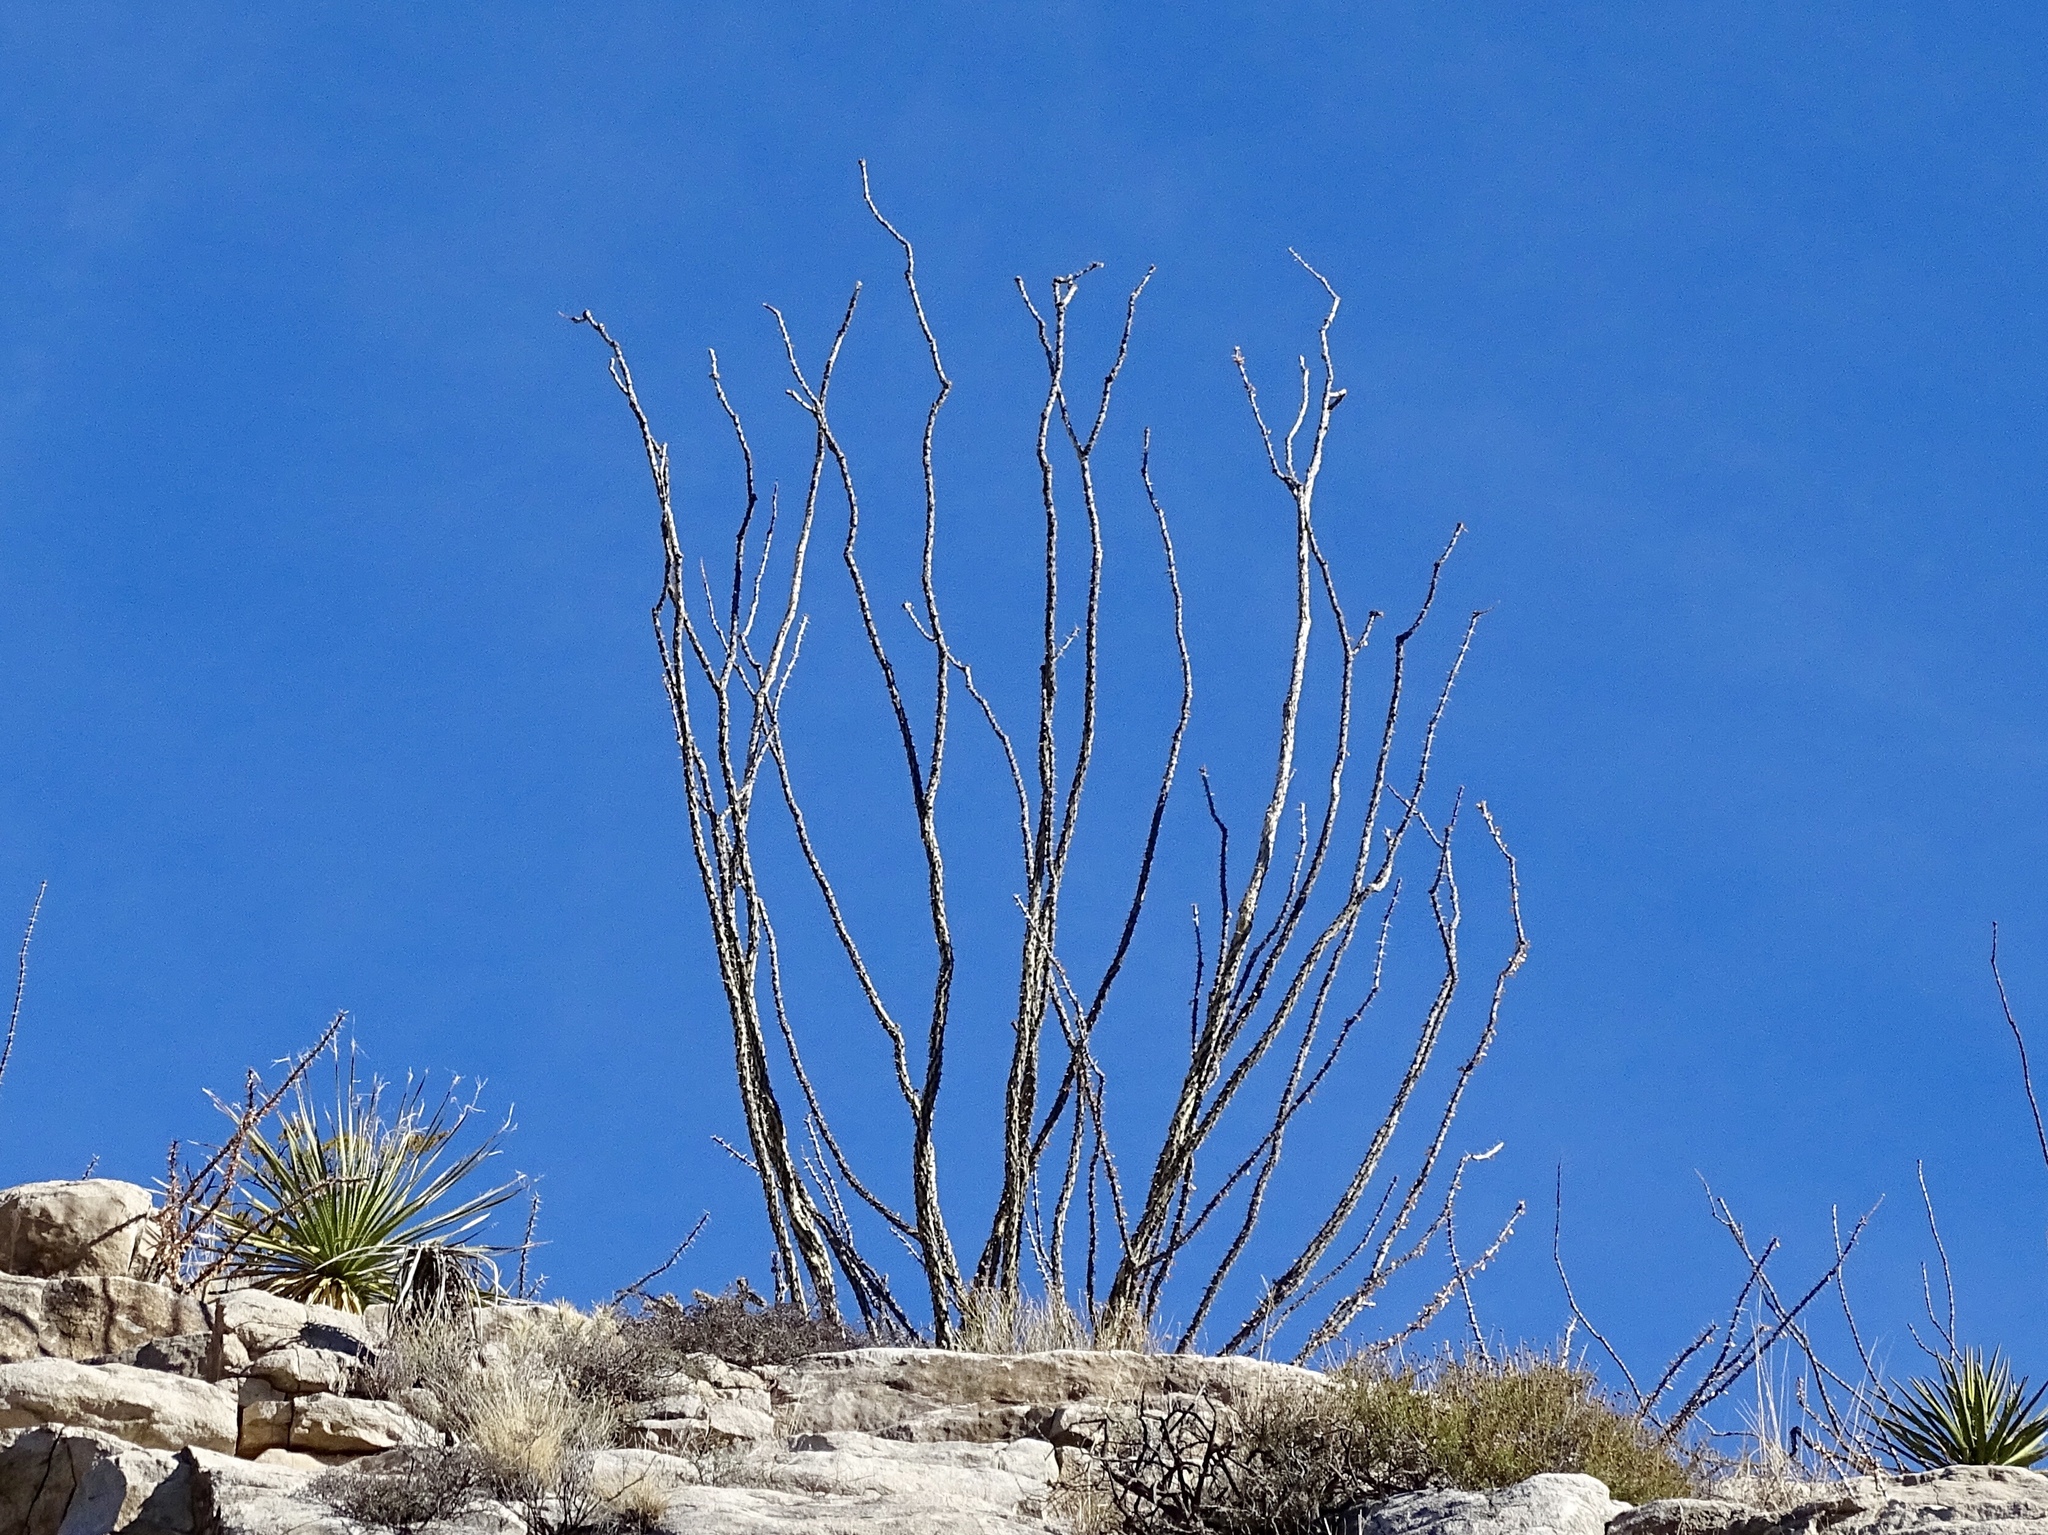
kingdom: Plantae
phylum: Tracheophyta
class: Magnoliopsida
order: Ericales
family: Fouquieriaceae
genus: Fouquieria
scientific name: Fouquieria splendens
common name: Vine-cactus
